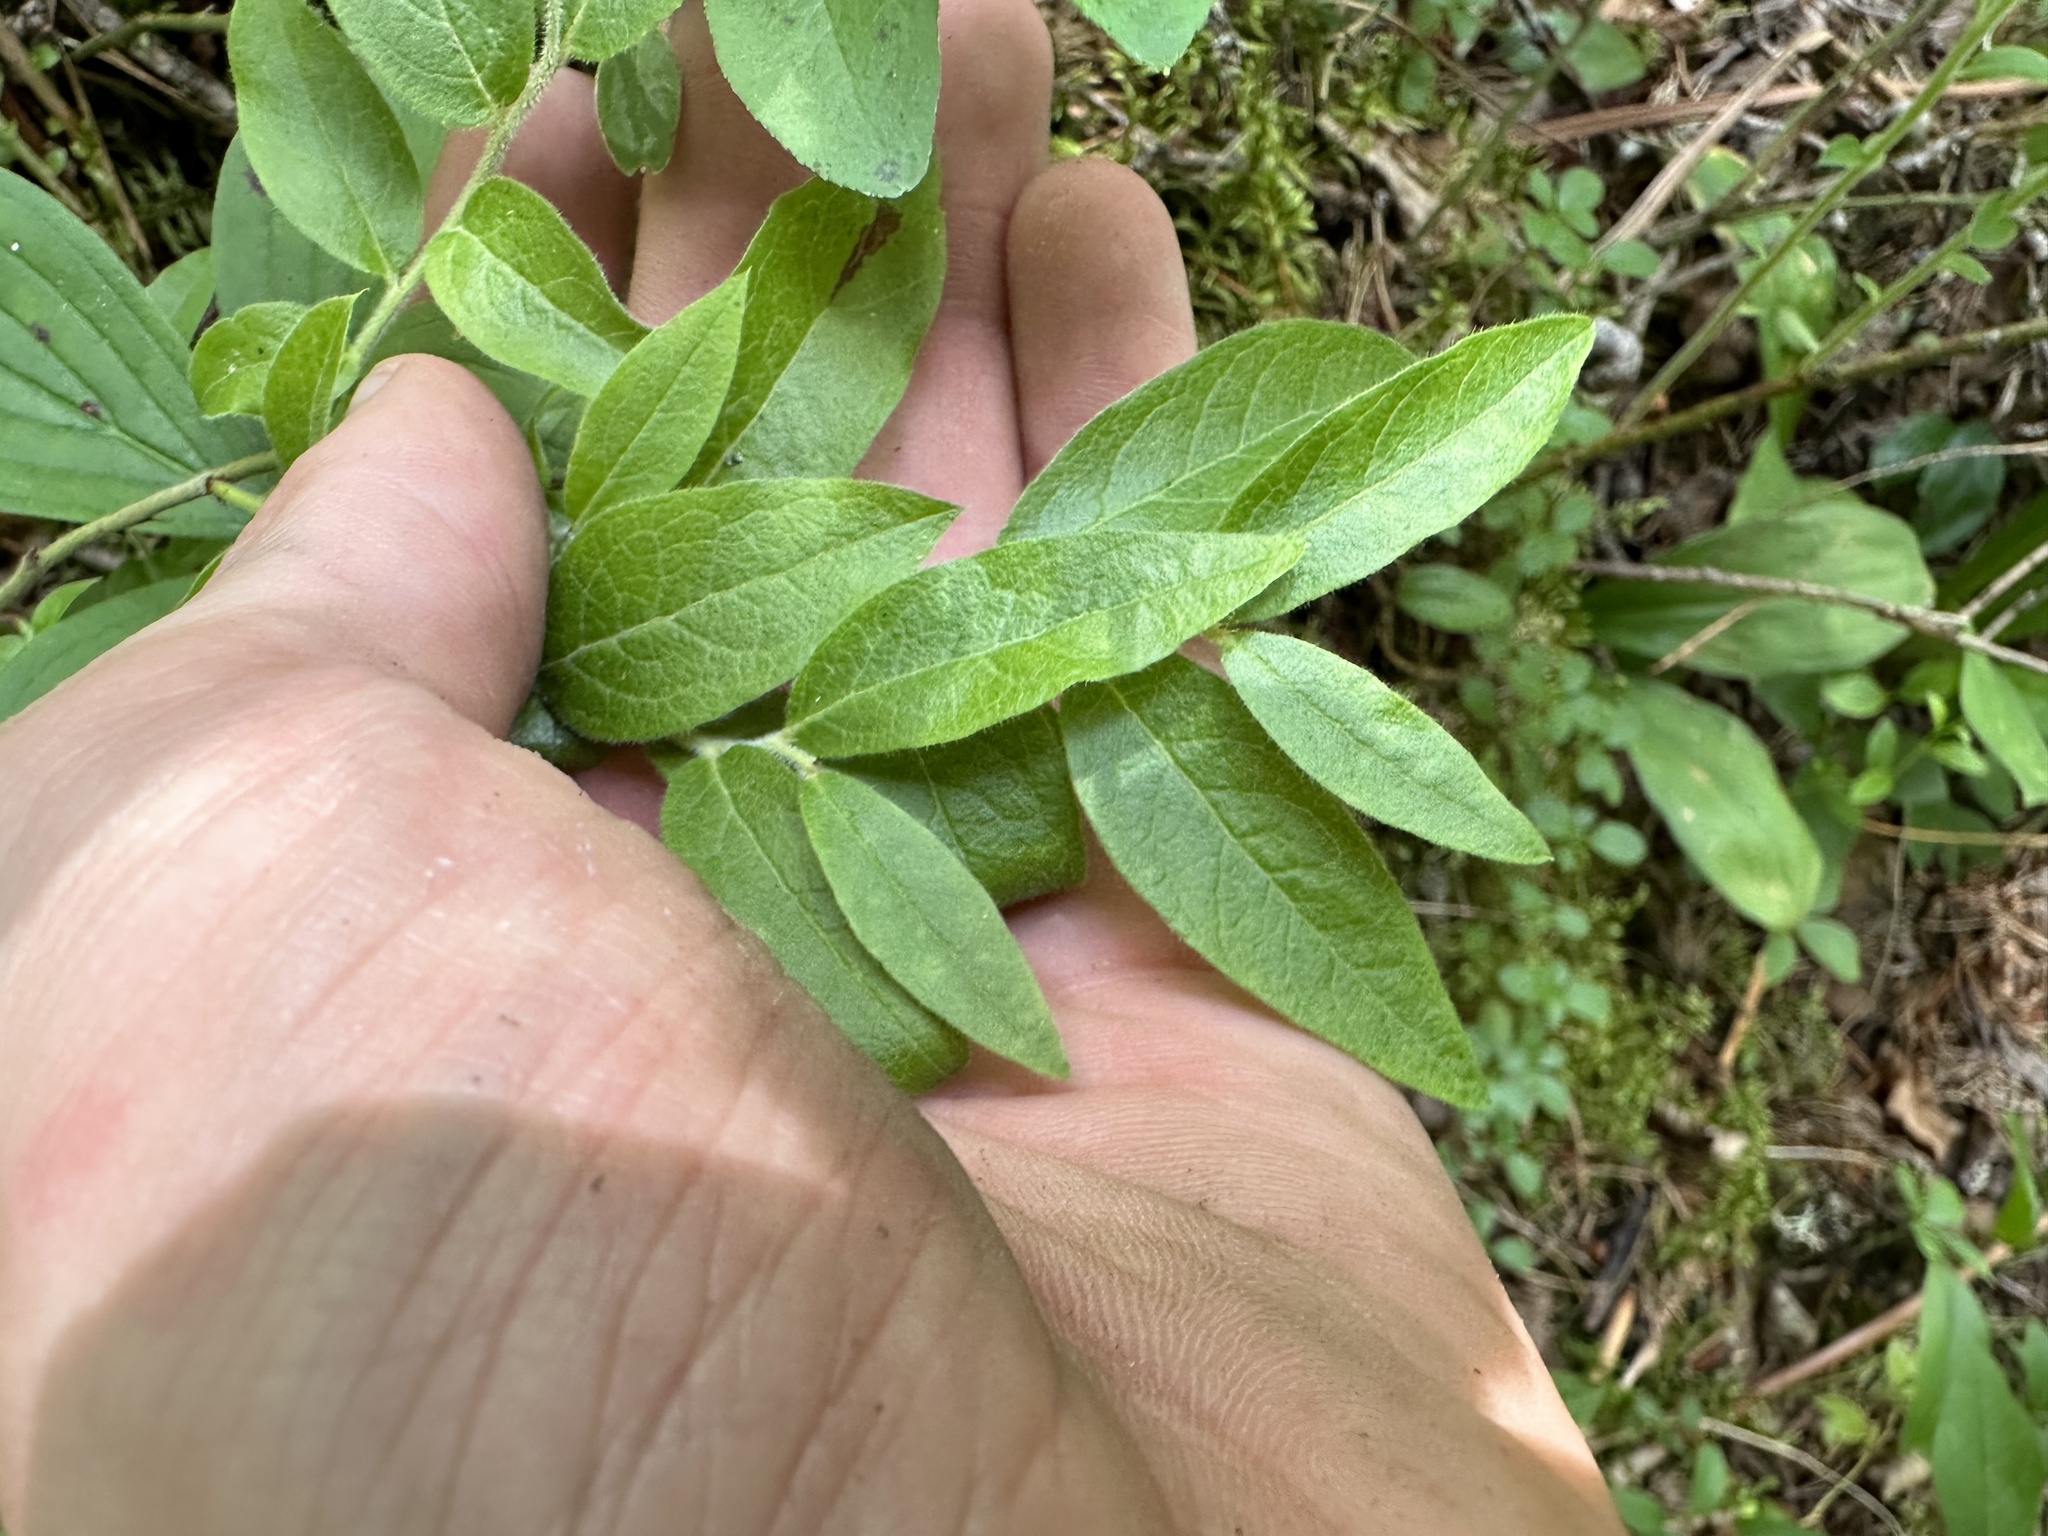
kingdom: Plantae
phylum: Tracheophyta
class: Magnoliopsida
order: Ericales
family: Ericaceae
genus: Vaccinium
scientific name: Vaccinium myrtilloides
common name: Canada blueberry
